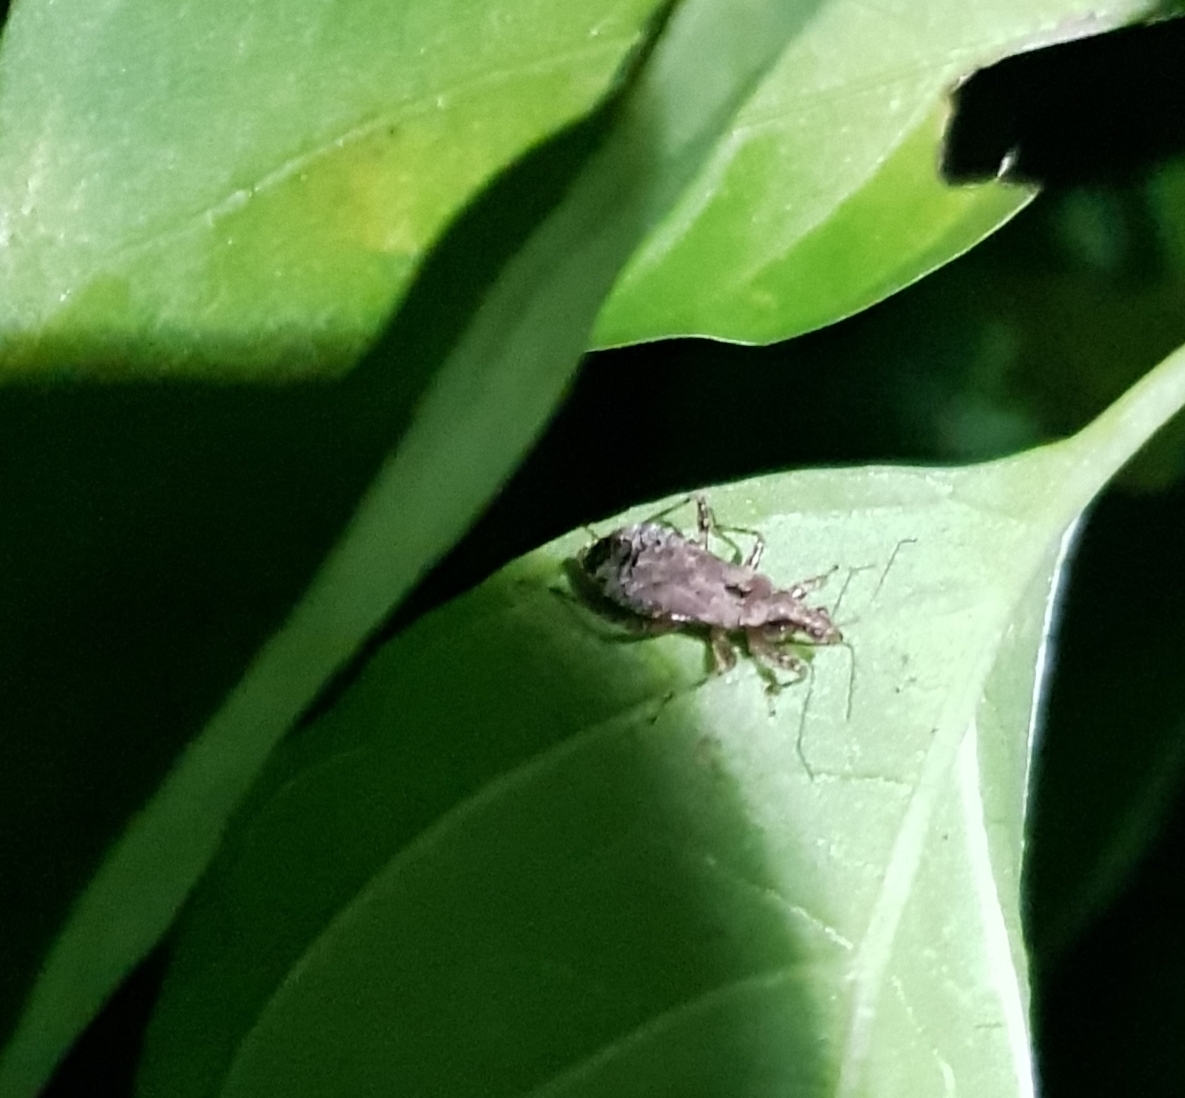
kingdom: Animalia
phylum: Arthropoda
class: Insecta
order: Hemiptera
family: Nabidae
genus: Himacerus
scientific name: Himacerus mirmicoides
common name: Ant damsel bug
